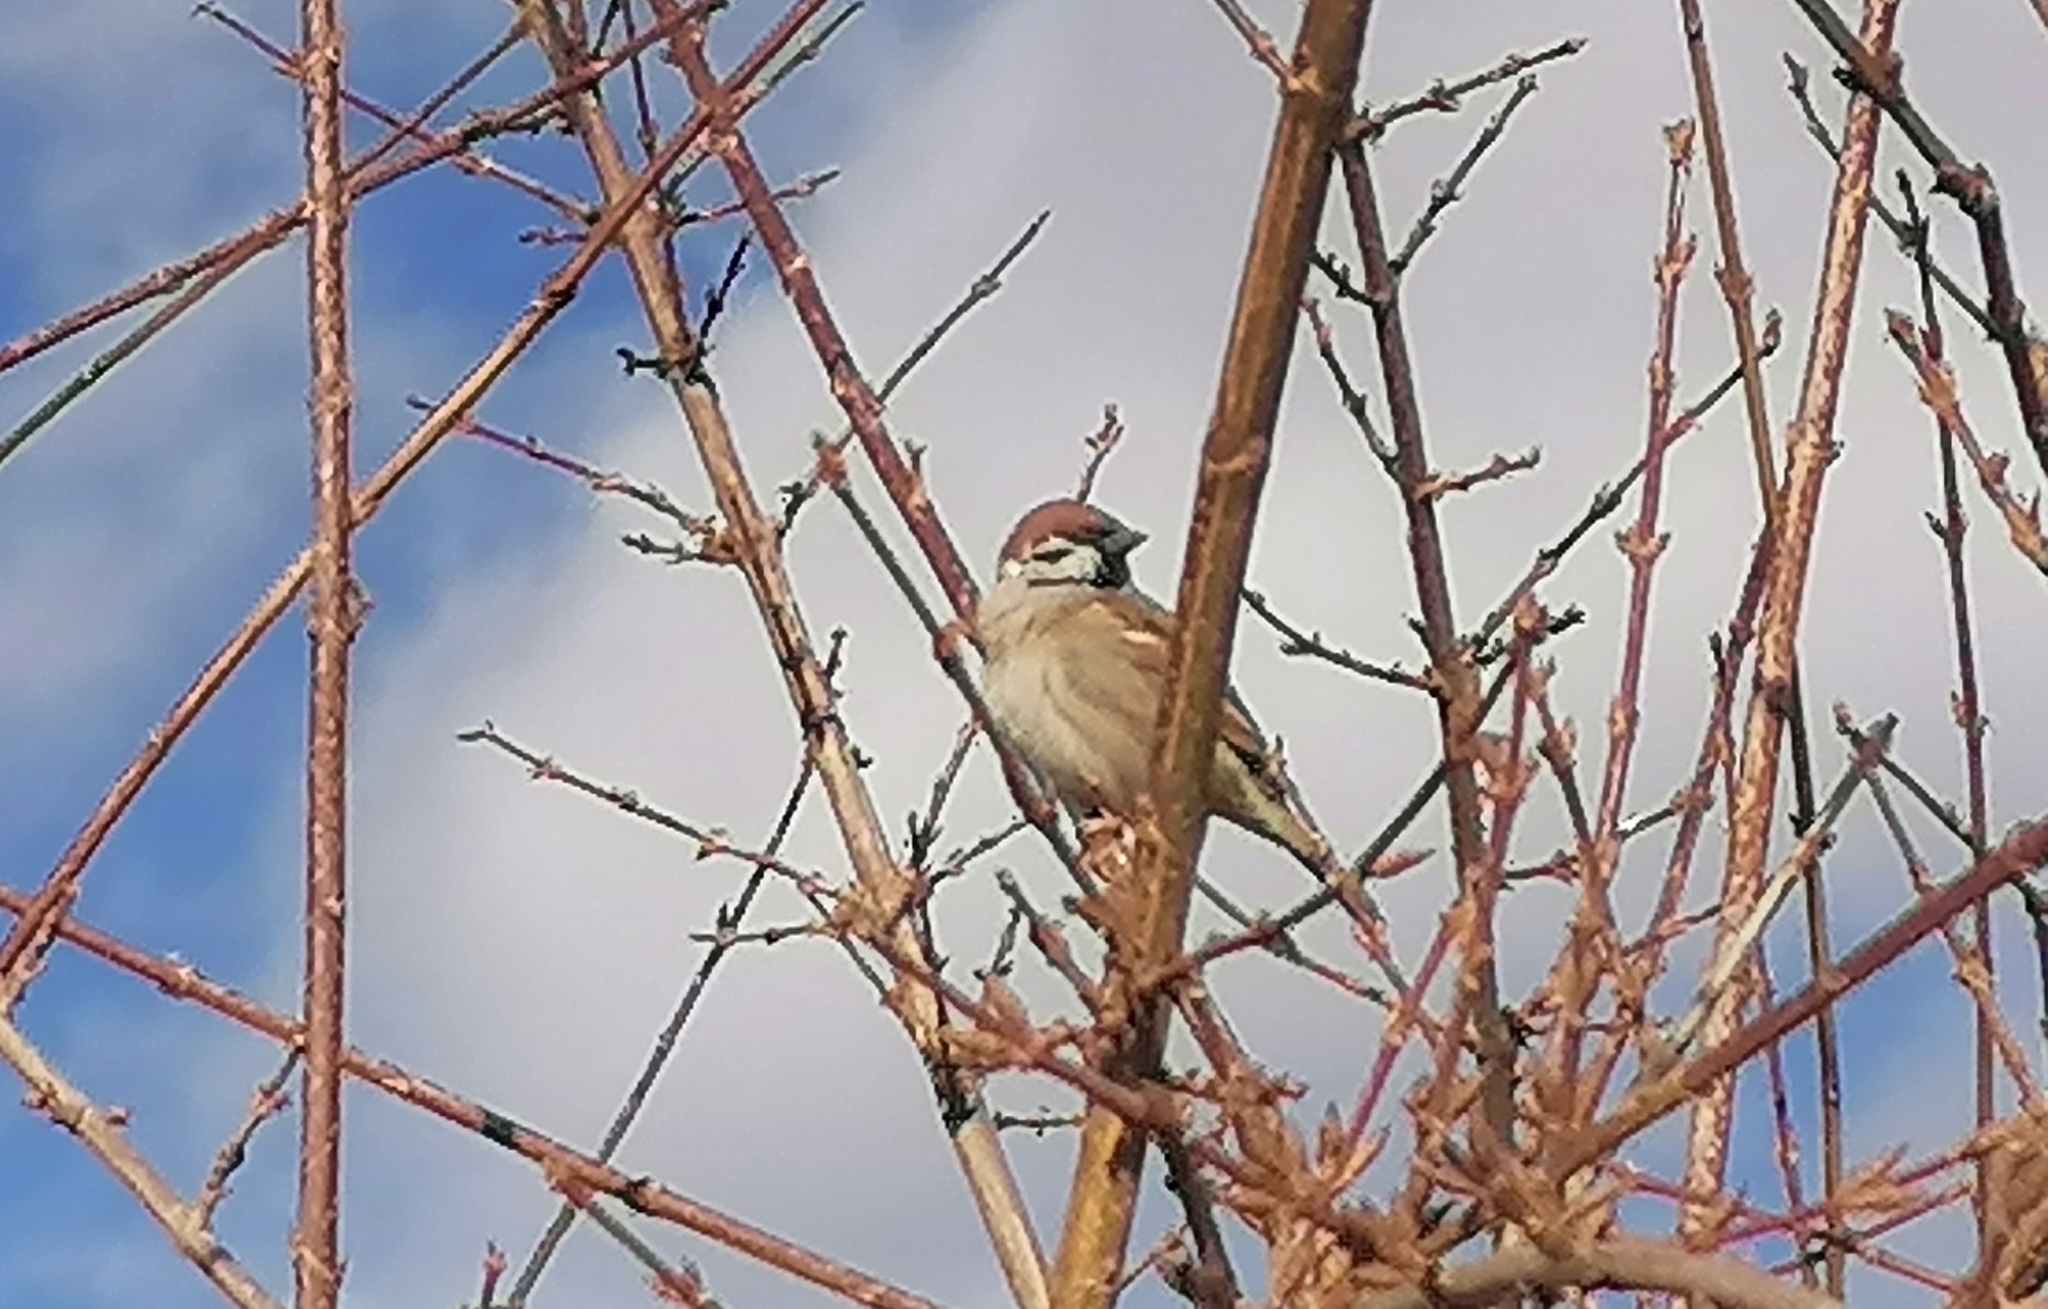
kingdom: Animalia
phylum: Chordata
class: Aves
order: Passeriformes
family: Passeridae
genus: Passer
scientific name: Passer montanus
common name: Eurasian tree sparrow
